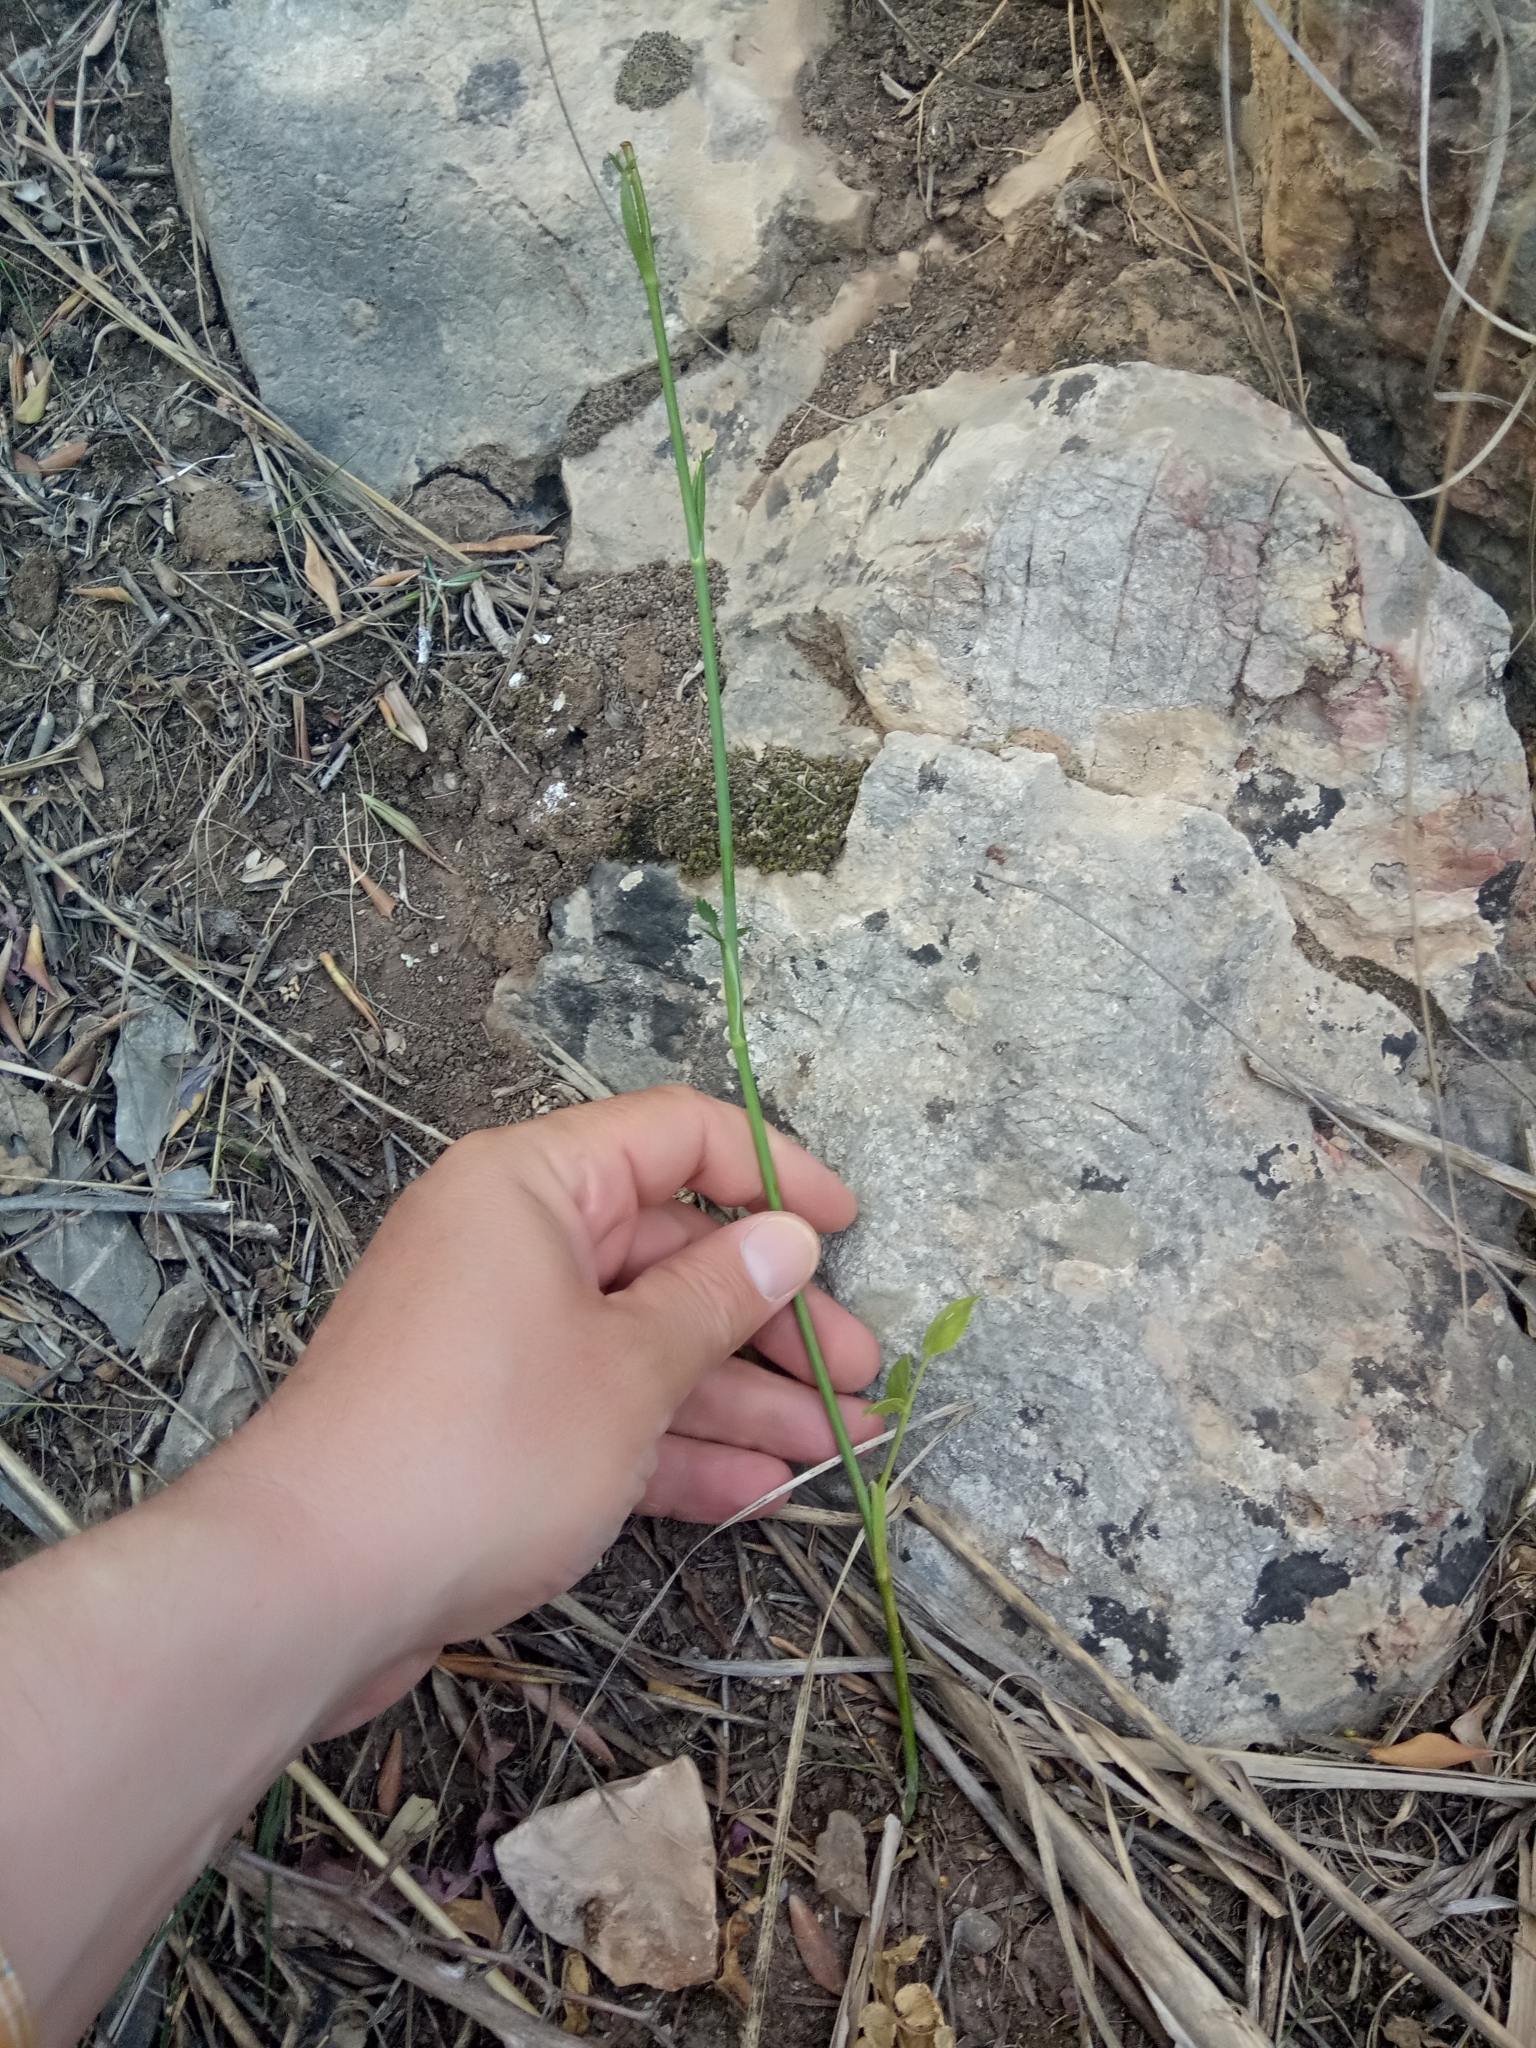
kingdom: Plantae
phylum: Tracheophyta
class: Magnoliopsida
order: Apiales
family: Apiaceae
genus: Pimpinella
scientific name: Pimpinella lutea
